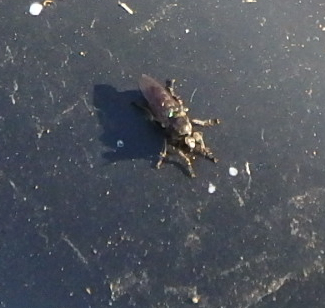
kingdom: Animalia
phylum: Arthropoda
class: Insecta
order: Diptera
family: Asilidae
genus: Atomosia
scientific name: Atomosia puella
